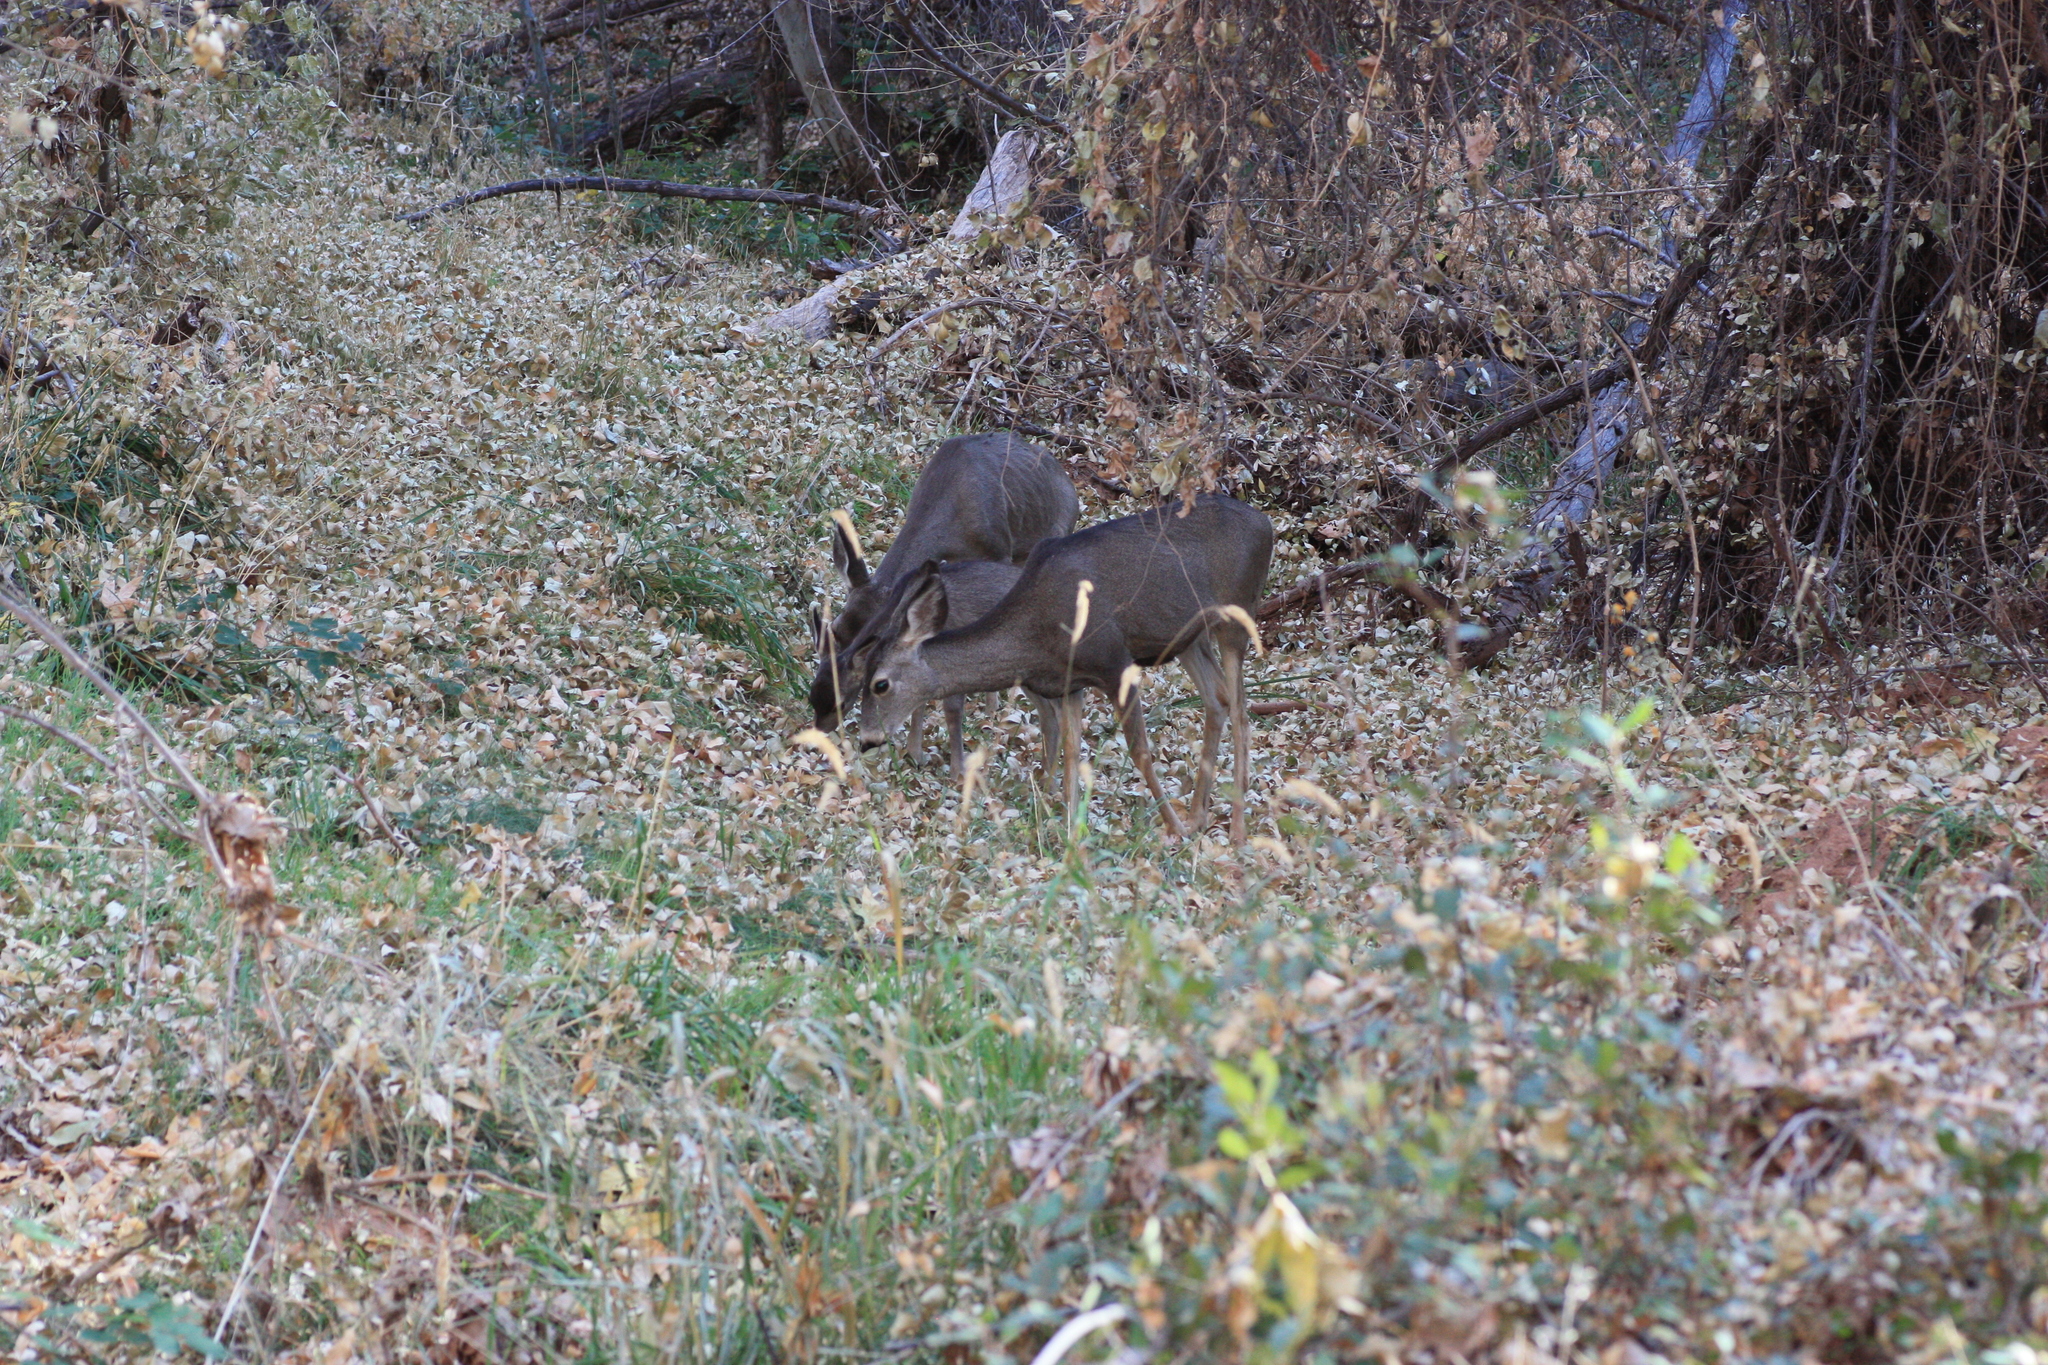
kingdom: Animalia
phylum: Chordata
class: Mammalia
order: Artiodactyla
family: Cervidae
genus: Odocoileus
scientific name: Odocoileus hemionus
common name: Mule deer
